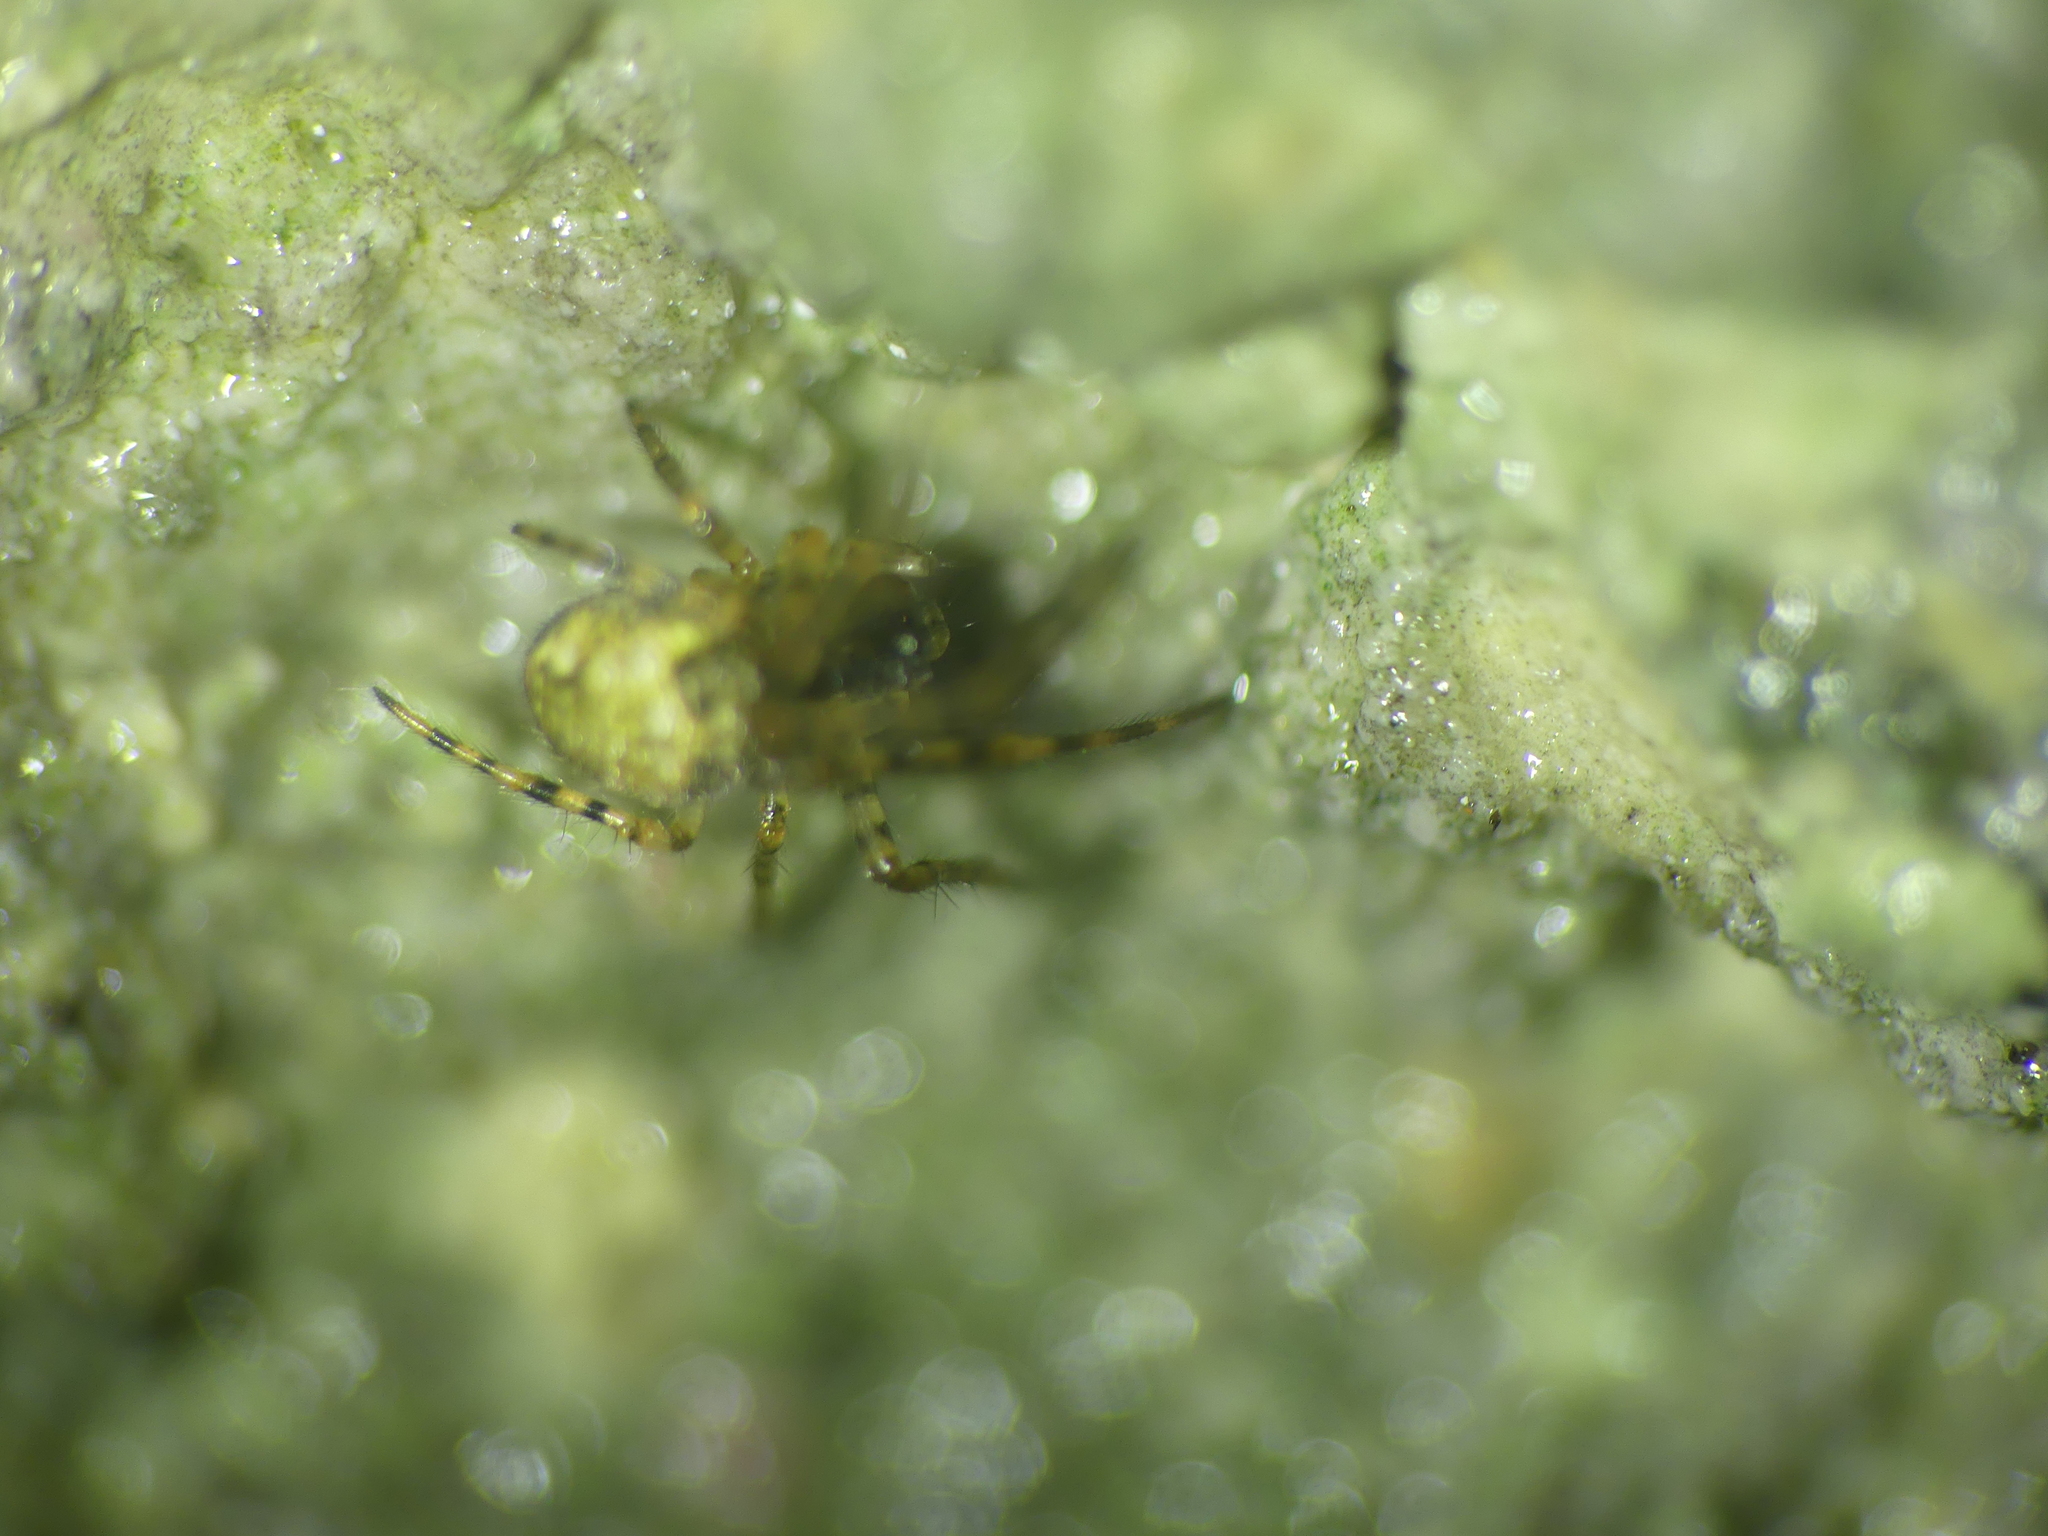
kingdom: Animalia
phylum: Arthropoda
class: Arachnida
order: Araneae
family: Tetragnathidae
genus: Metellina
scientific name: Metellina merianae
